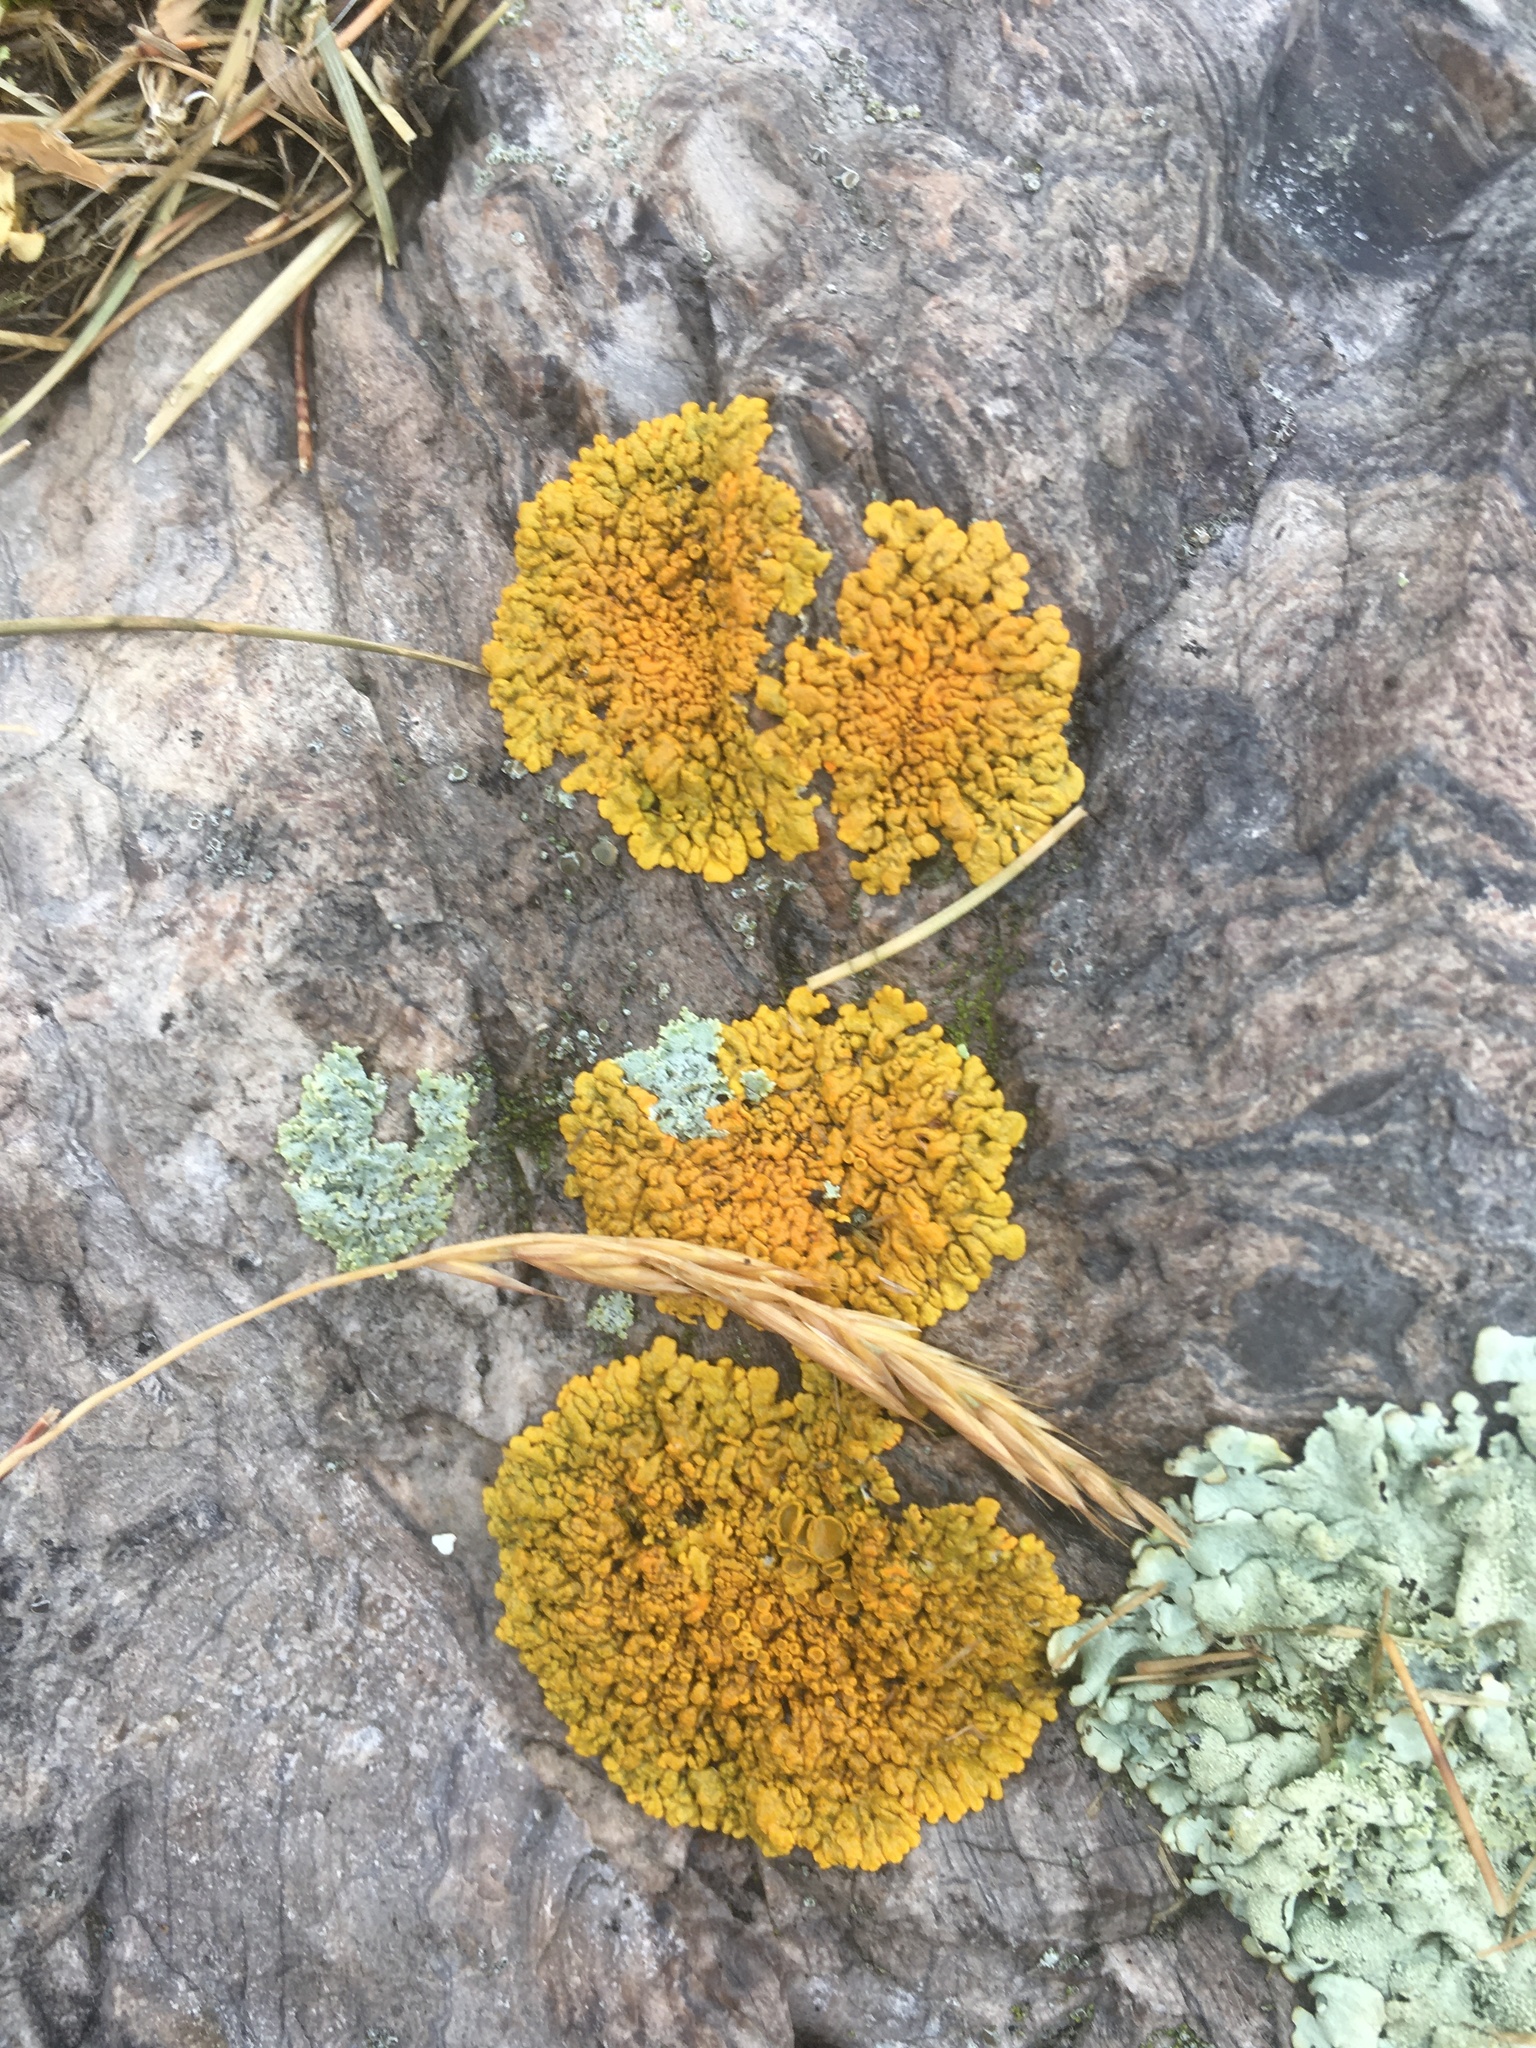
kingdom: Fungi
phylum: Ascomycota
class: Lecanoromycetes
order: Teloschistales
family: Teloschistaceae
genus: Xanthoria
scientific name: Xanthoria parietina
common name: Common orange lichen
